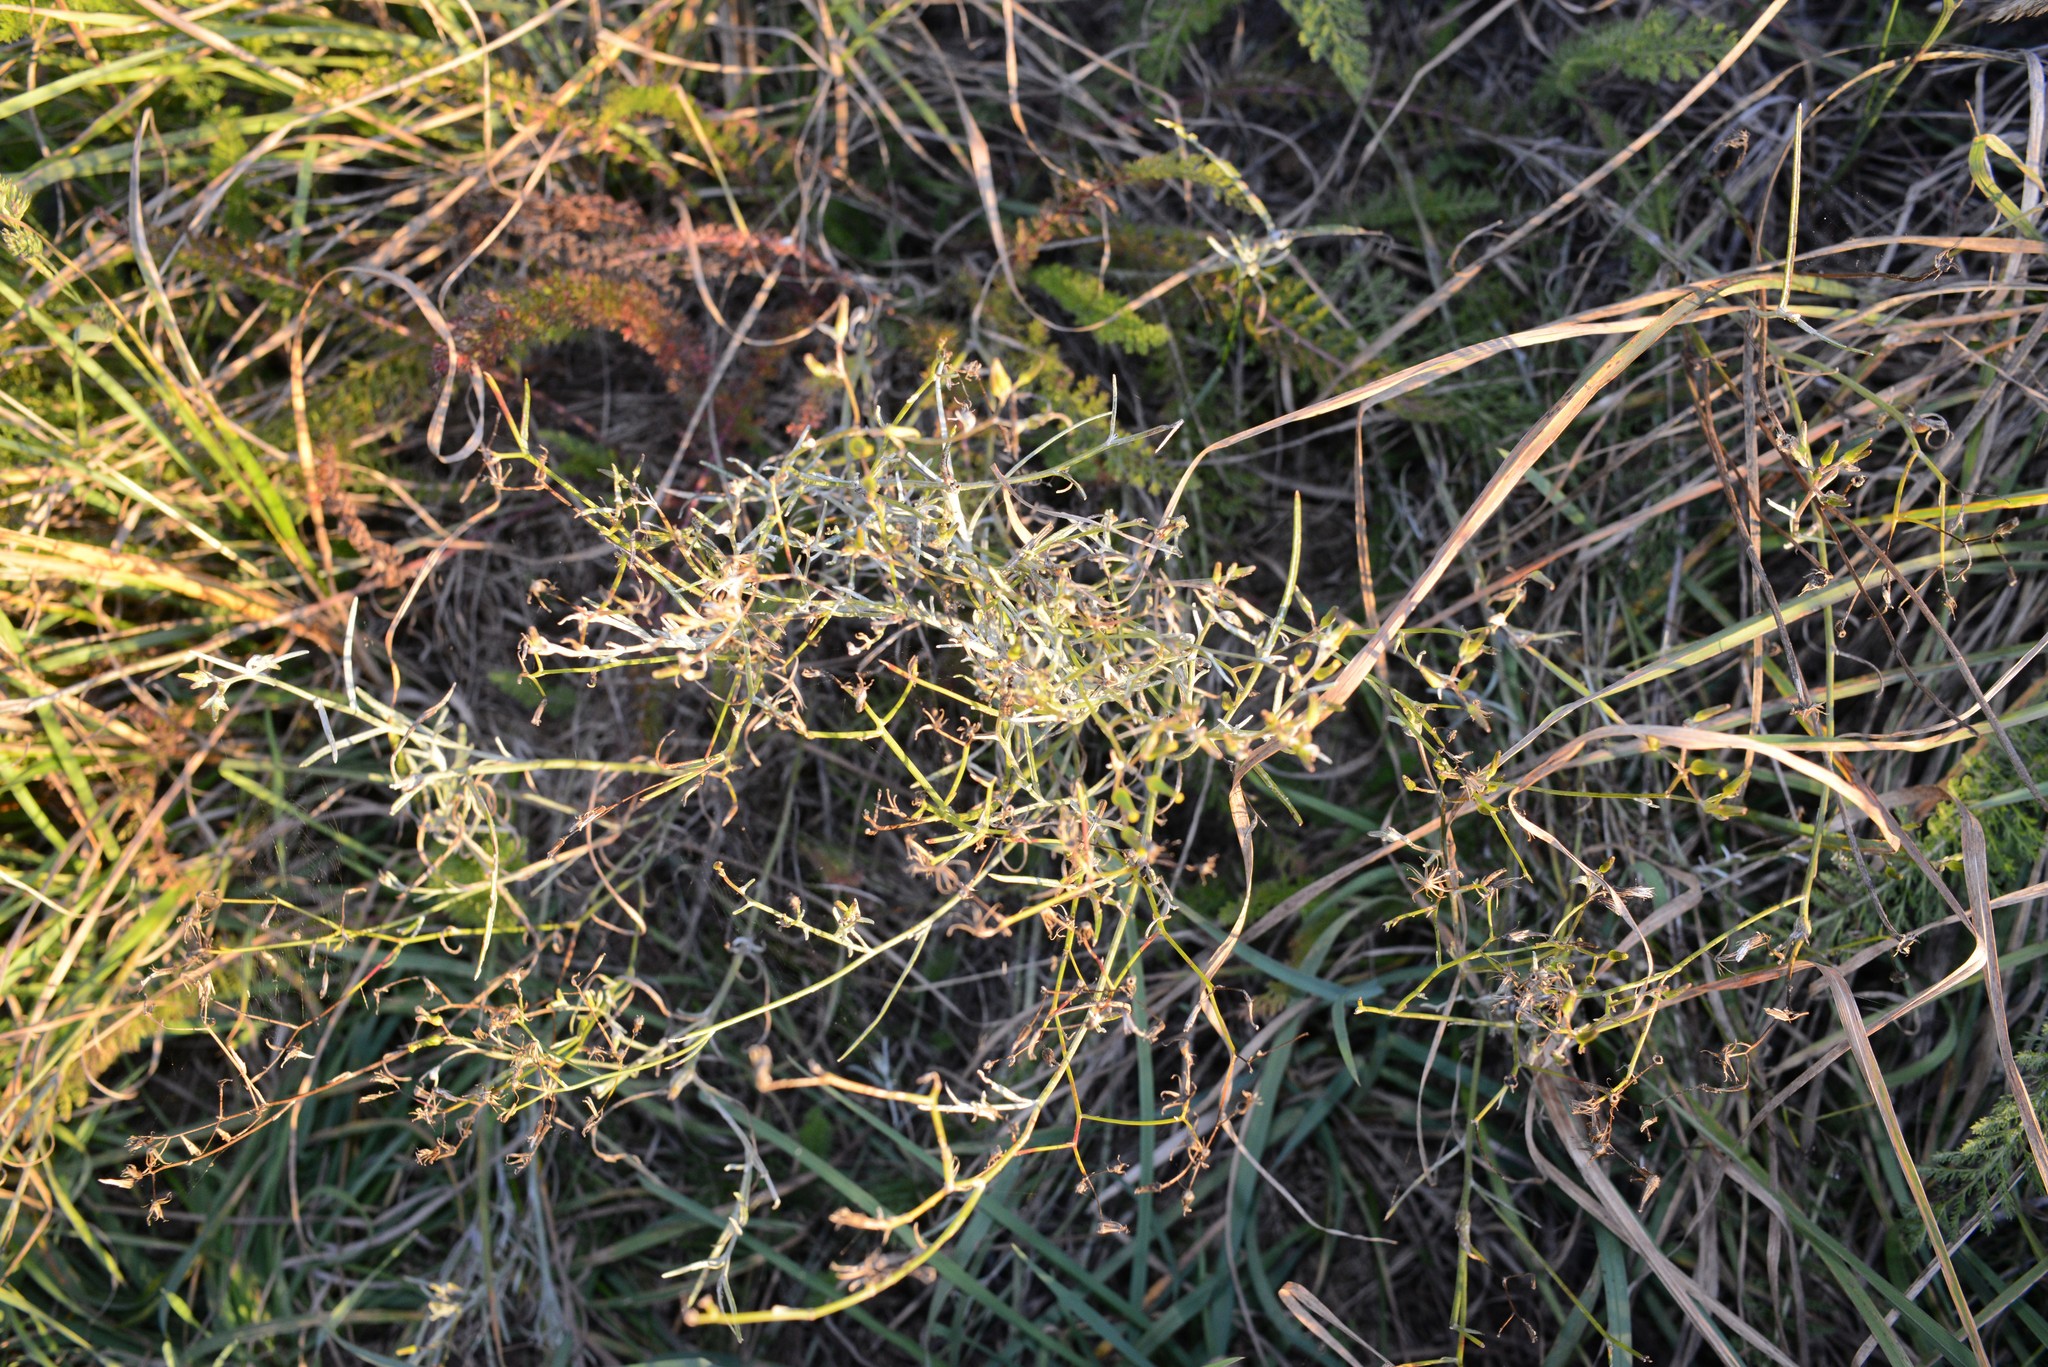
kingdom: Plantae
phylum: Tracheophyta
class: Magnoliopsida
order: Asterales
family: Asteraceae
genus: Senecio
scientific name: Senecio quadridentatus
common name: Cotton fireweed
